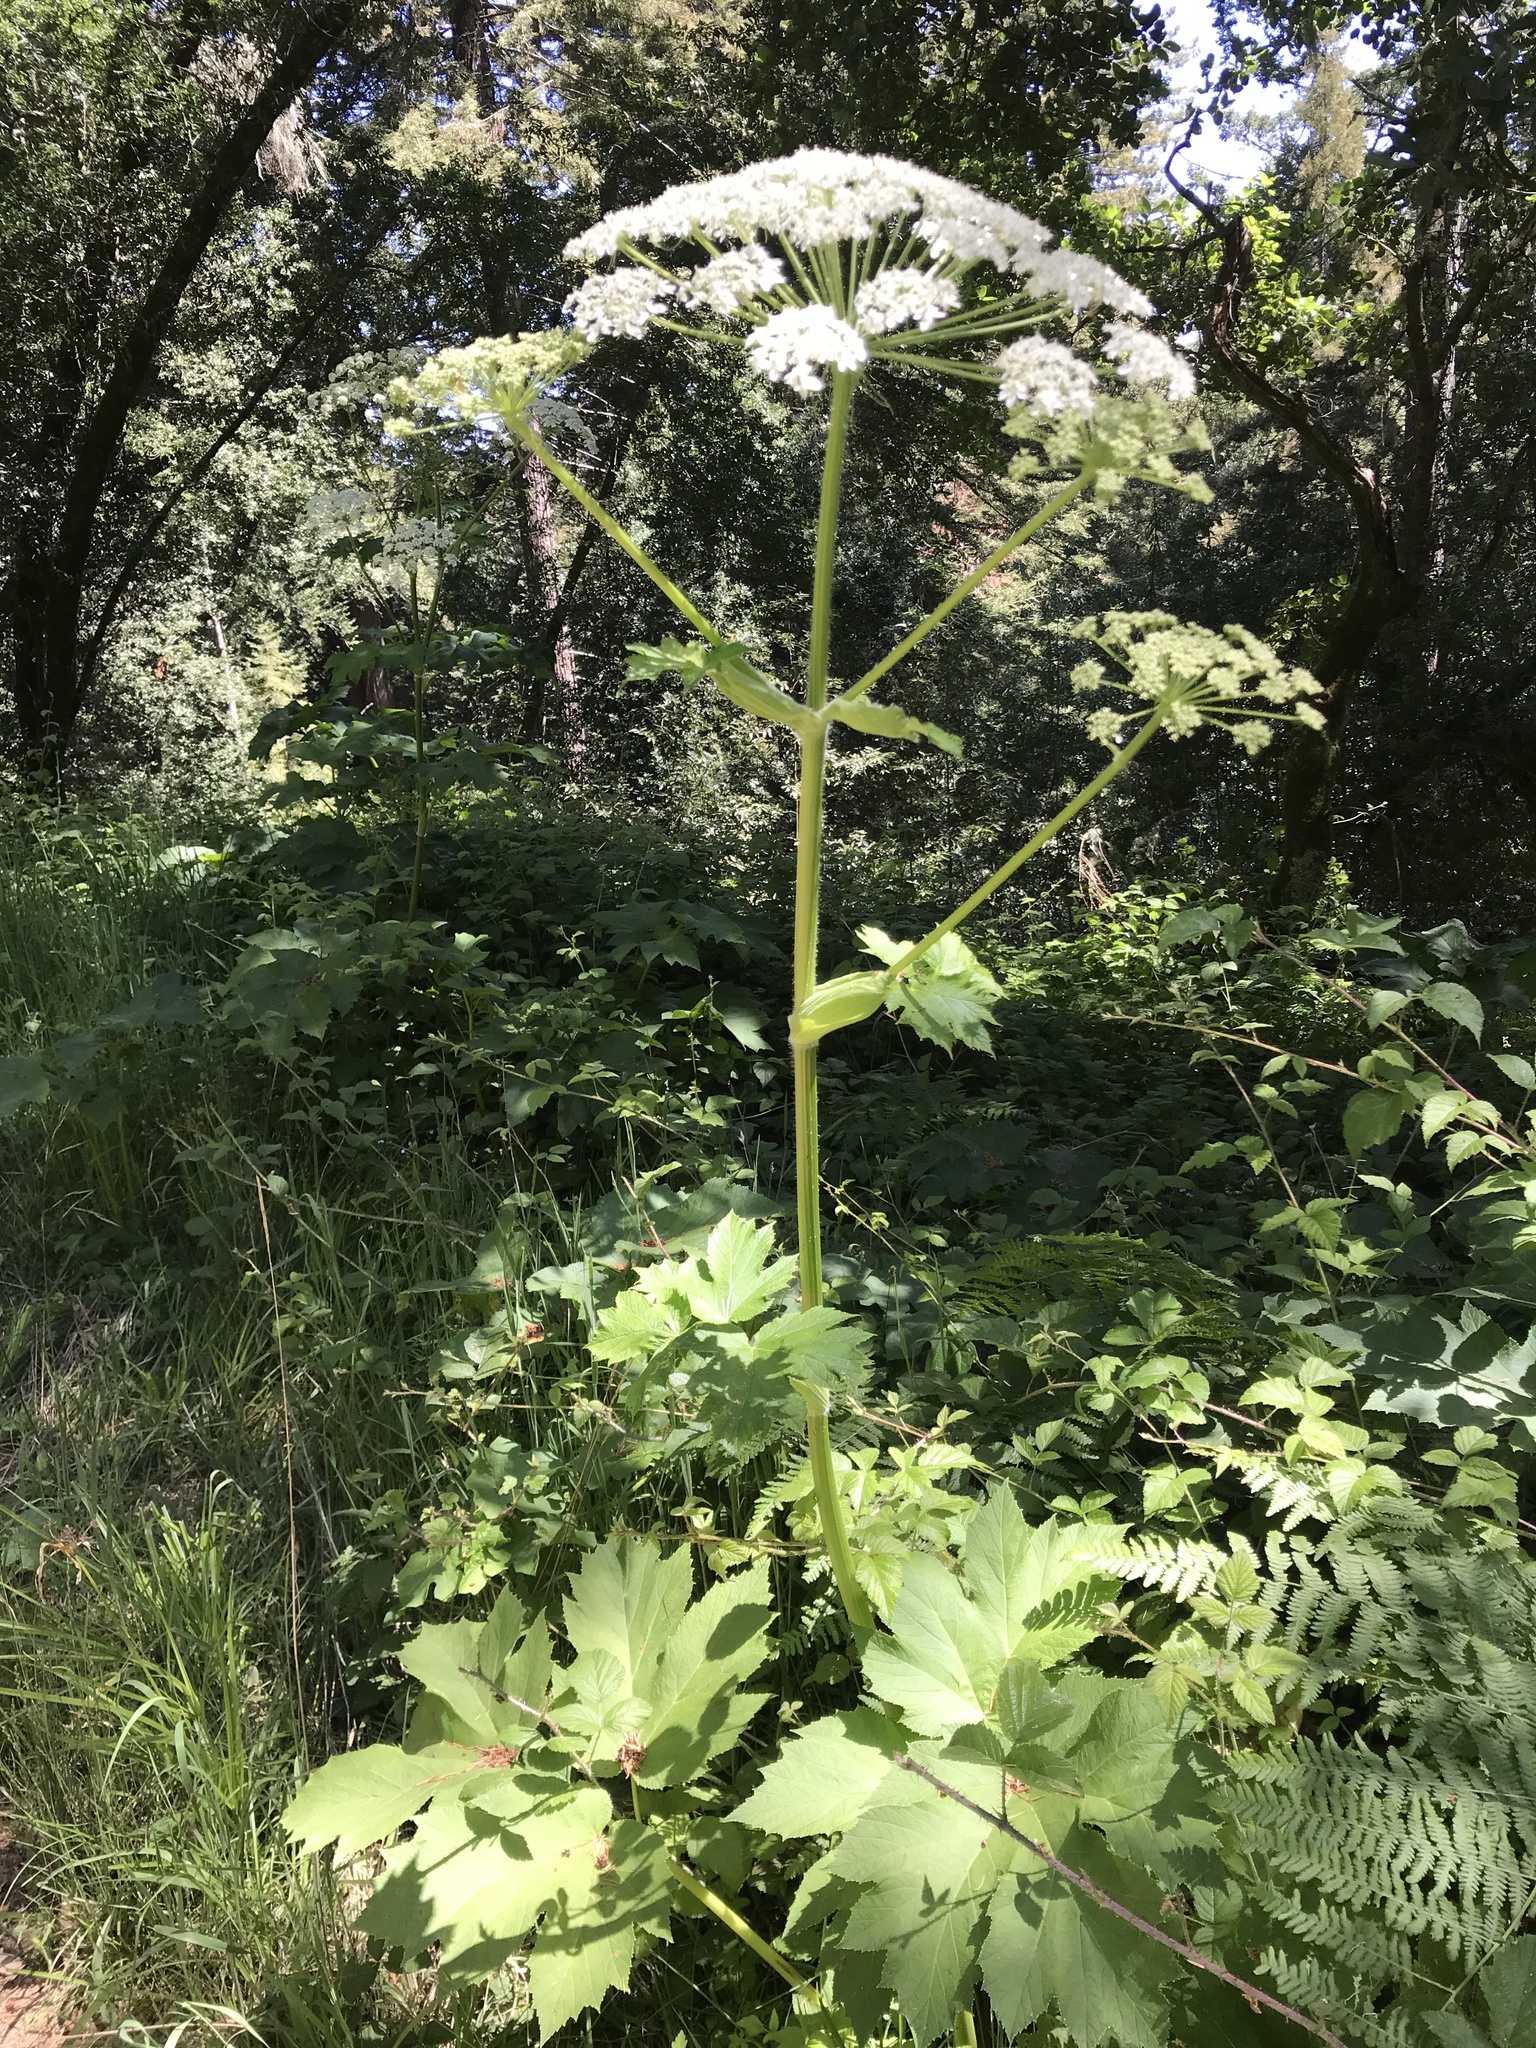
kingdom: Plantae
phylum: Tracheophyta
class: Magnoliopsida
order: Apiales
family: Apiaceae
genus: Heracleum
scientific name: Heracleum maximum
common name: American cow parsnip
